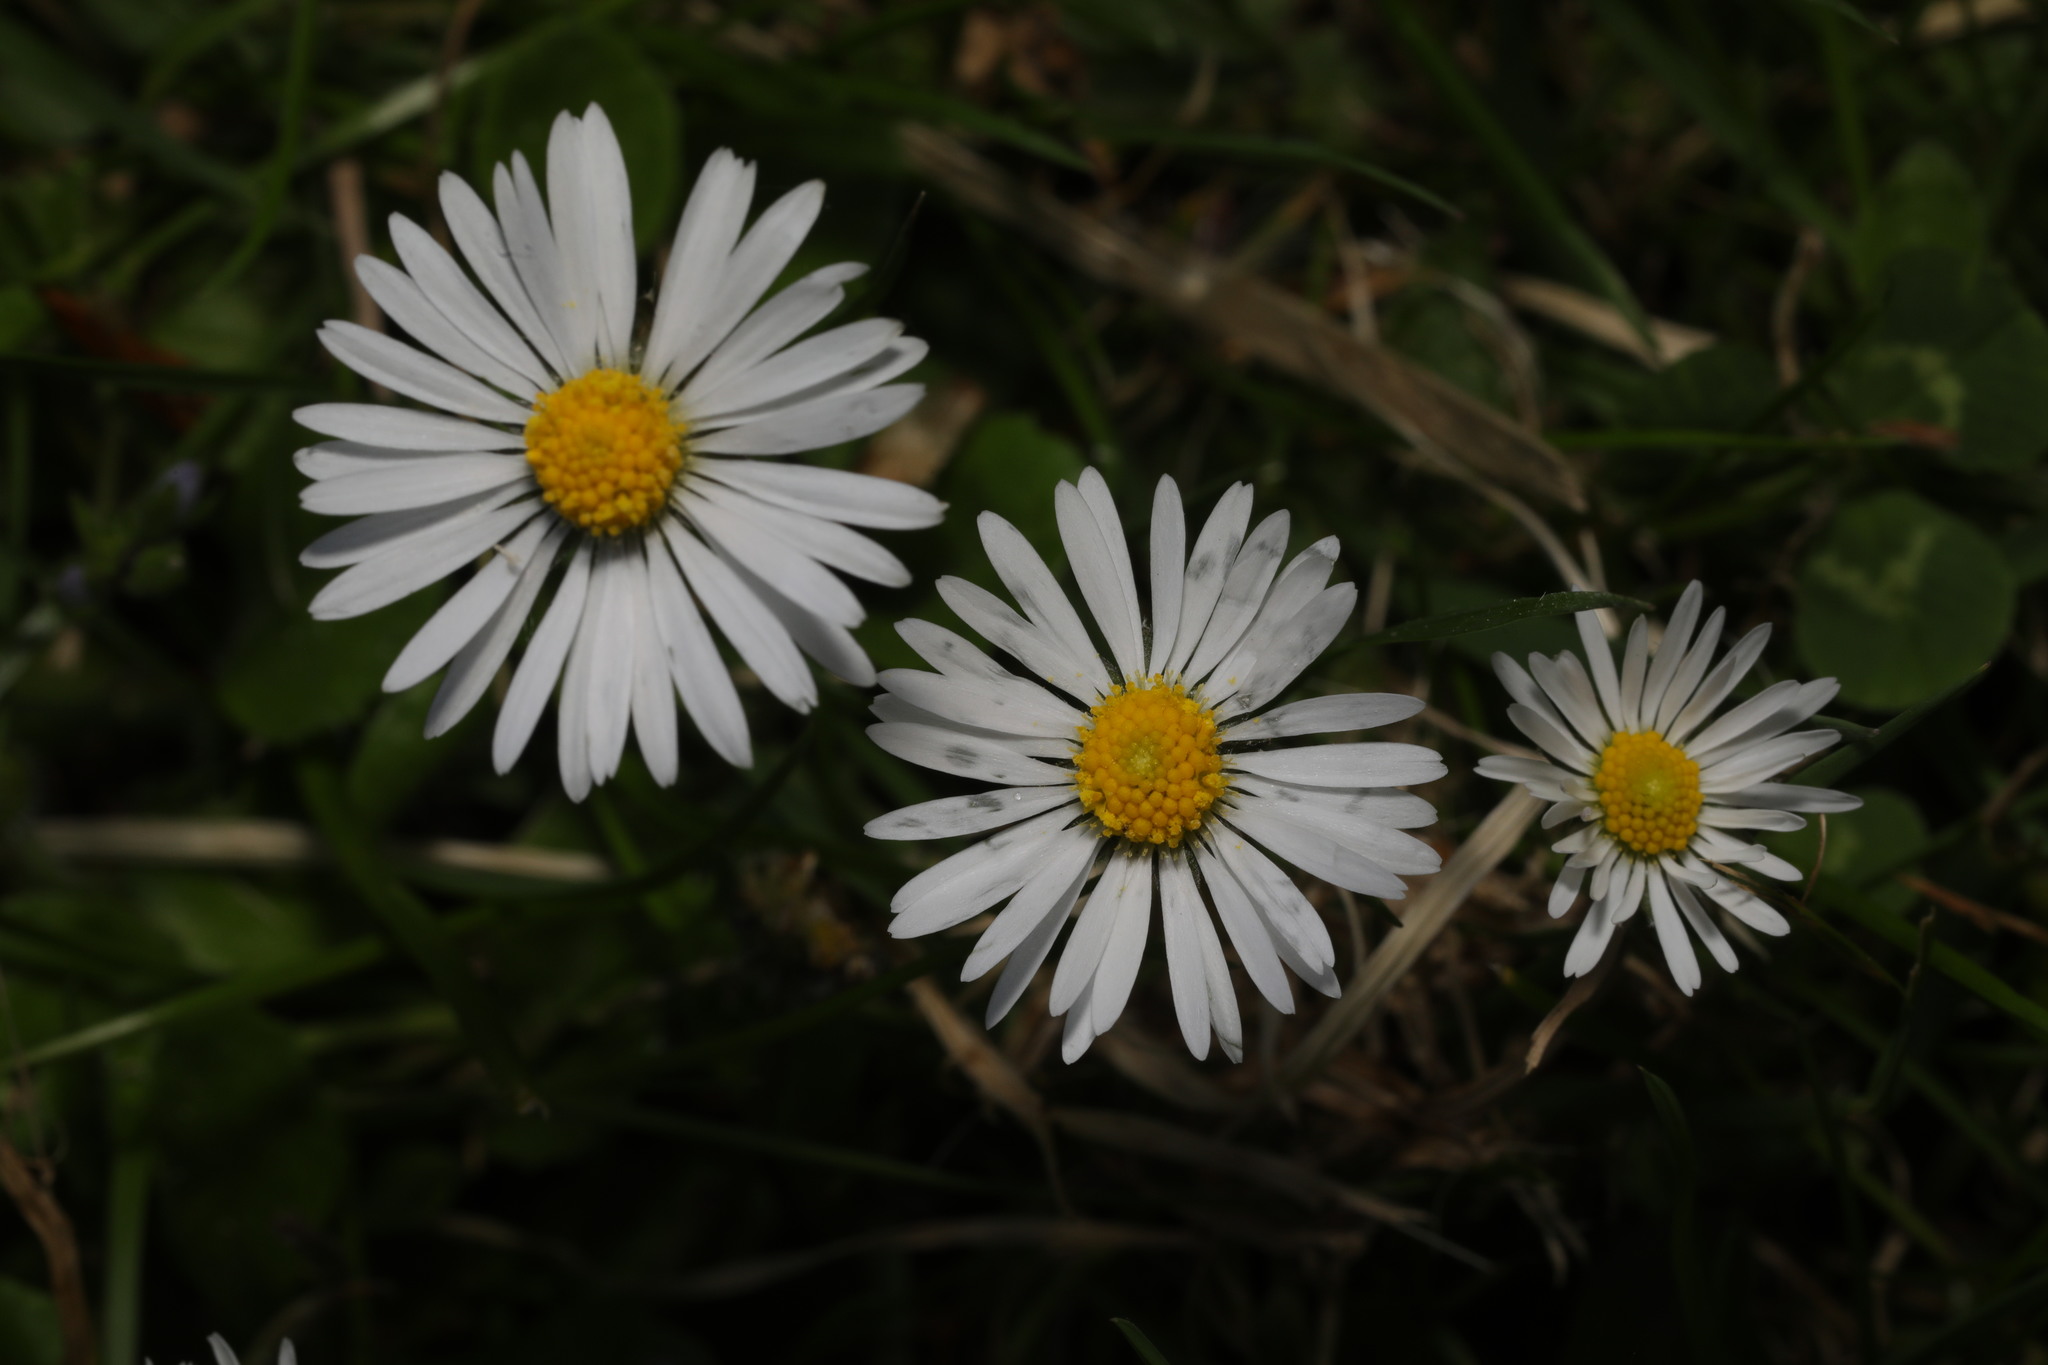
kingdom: Plantae
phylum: Tracheophyta
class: Magnoliopsida
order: Asterales
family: Asteraceae
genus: Bellis
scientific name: Bellis perennis
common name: Lawndaisy
